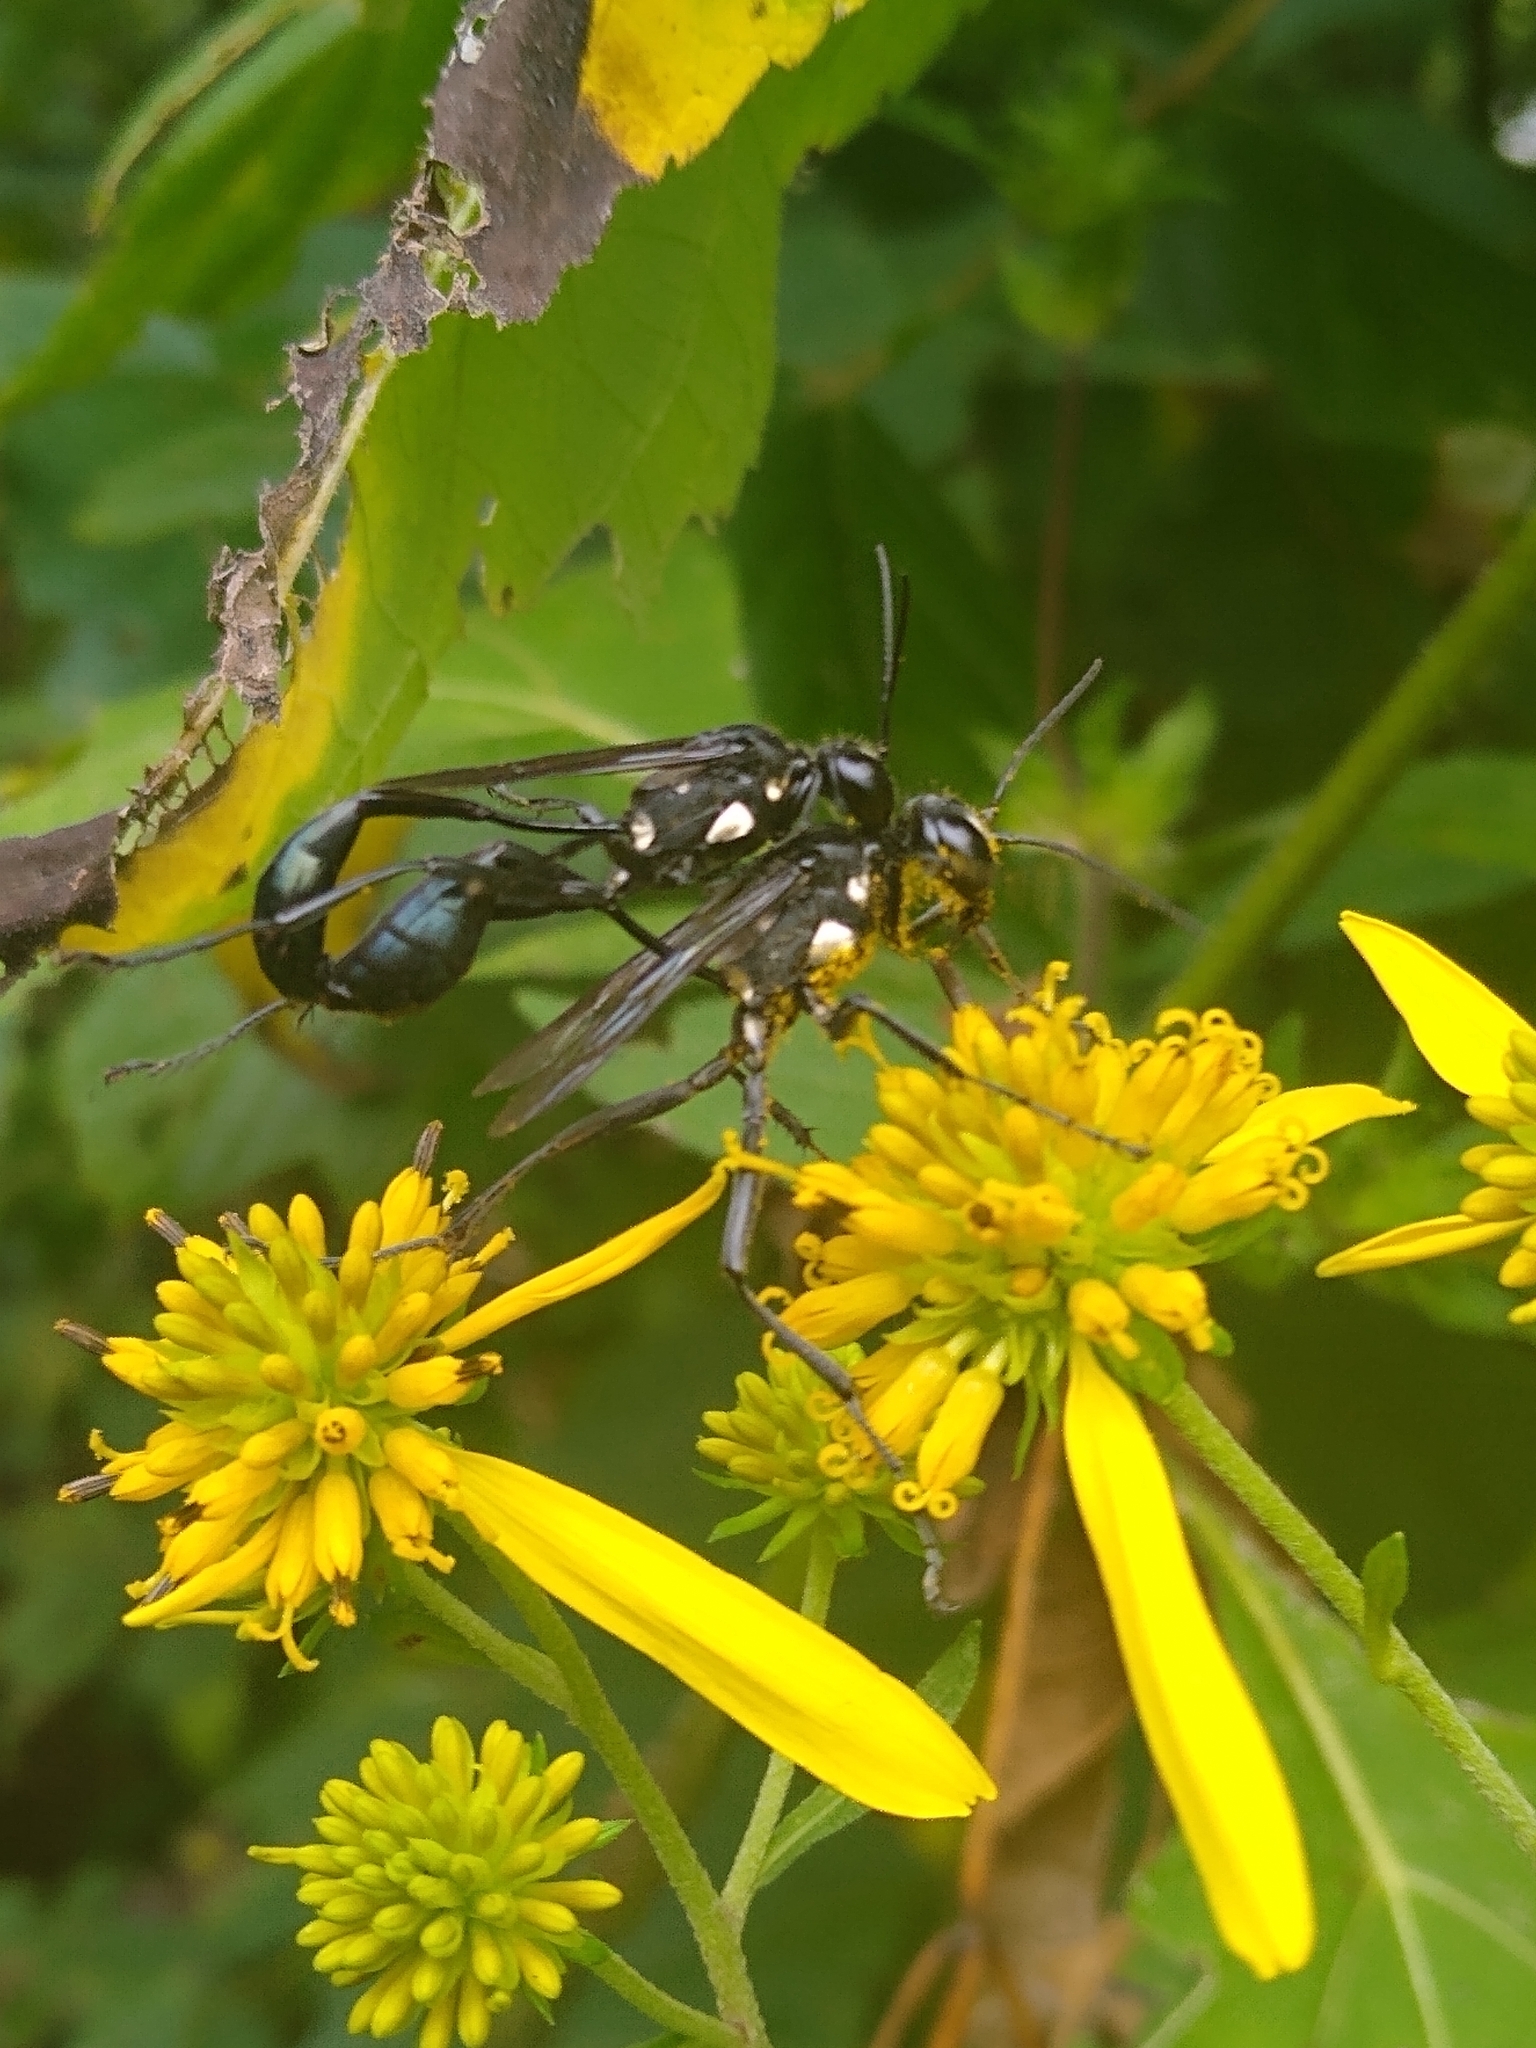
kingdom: Animalia
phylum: Arthropoda
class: Insecta
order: Hymenoptera
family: Sphecidae
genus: Eremnophila
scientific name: Eremnophila aureonotata
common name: Gold-marked thread-waisted wasp
